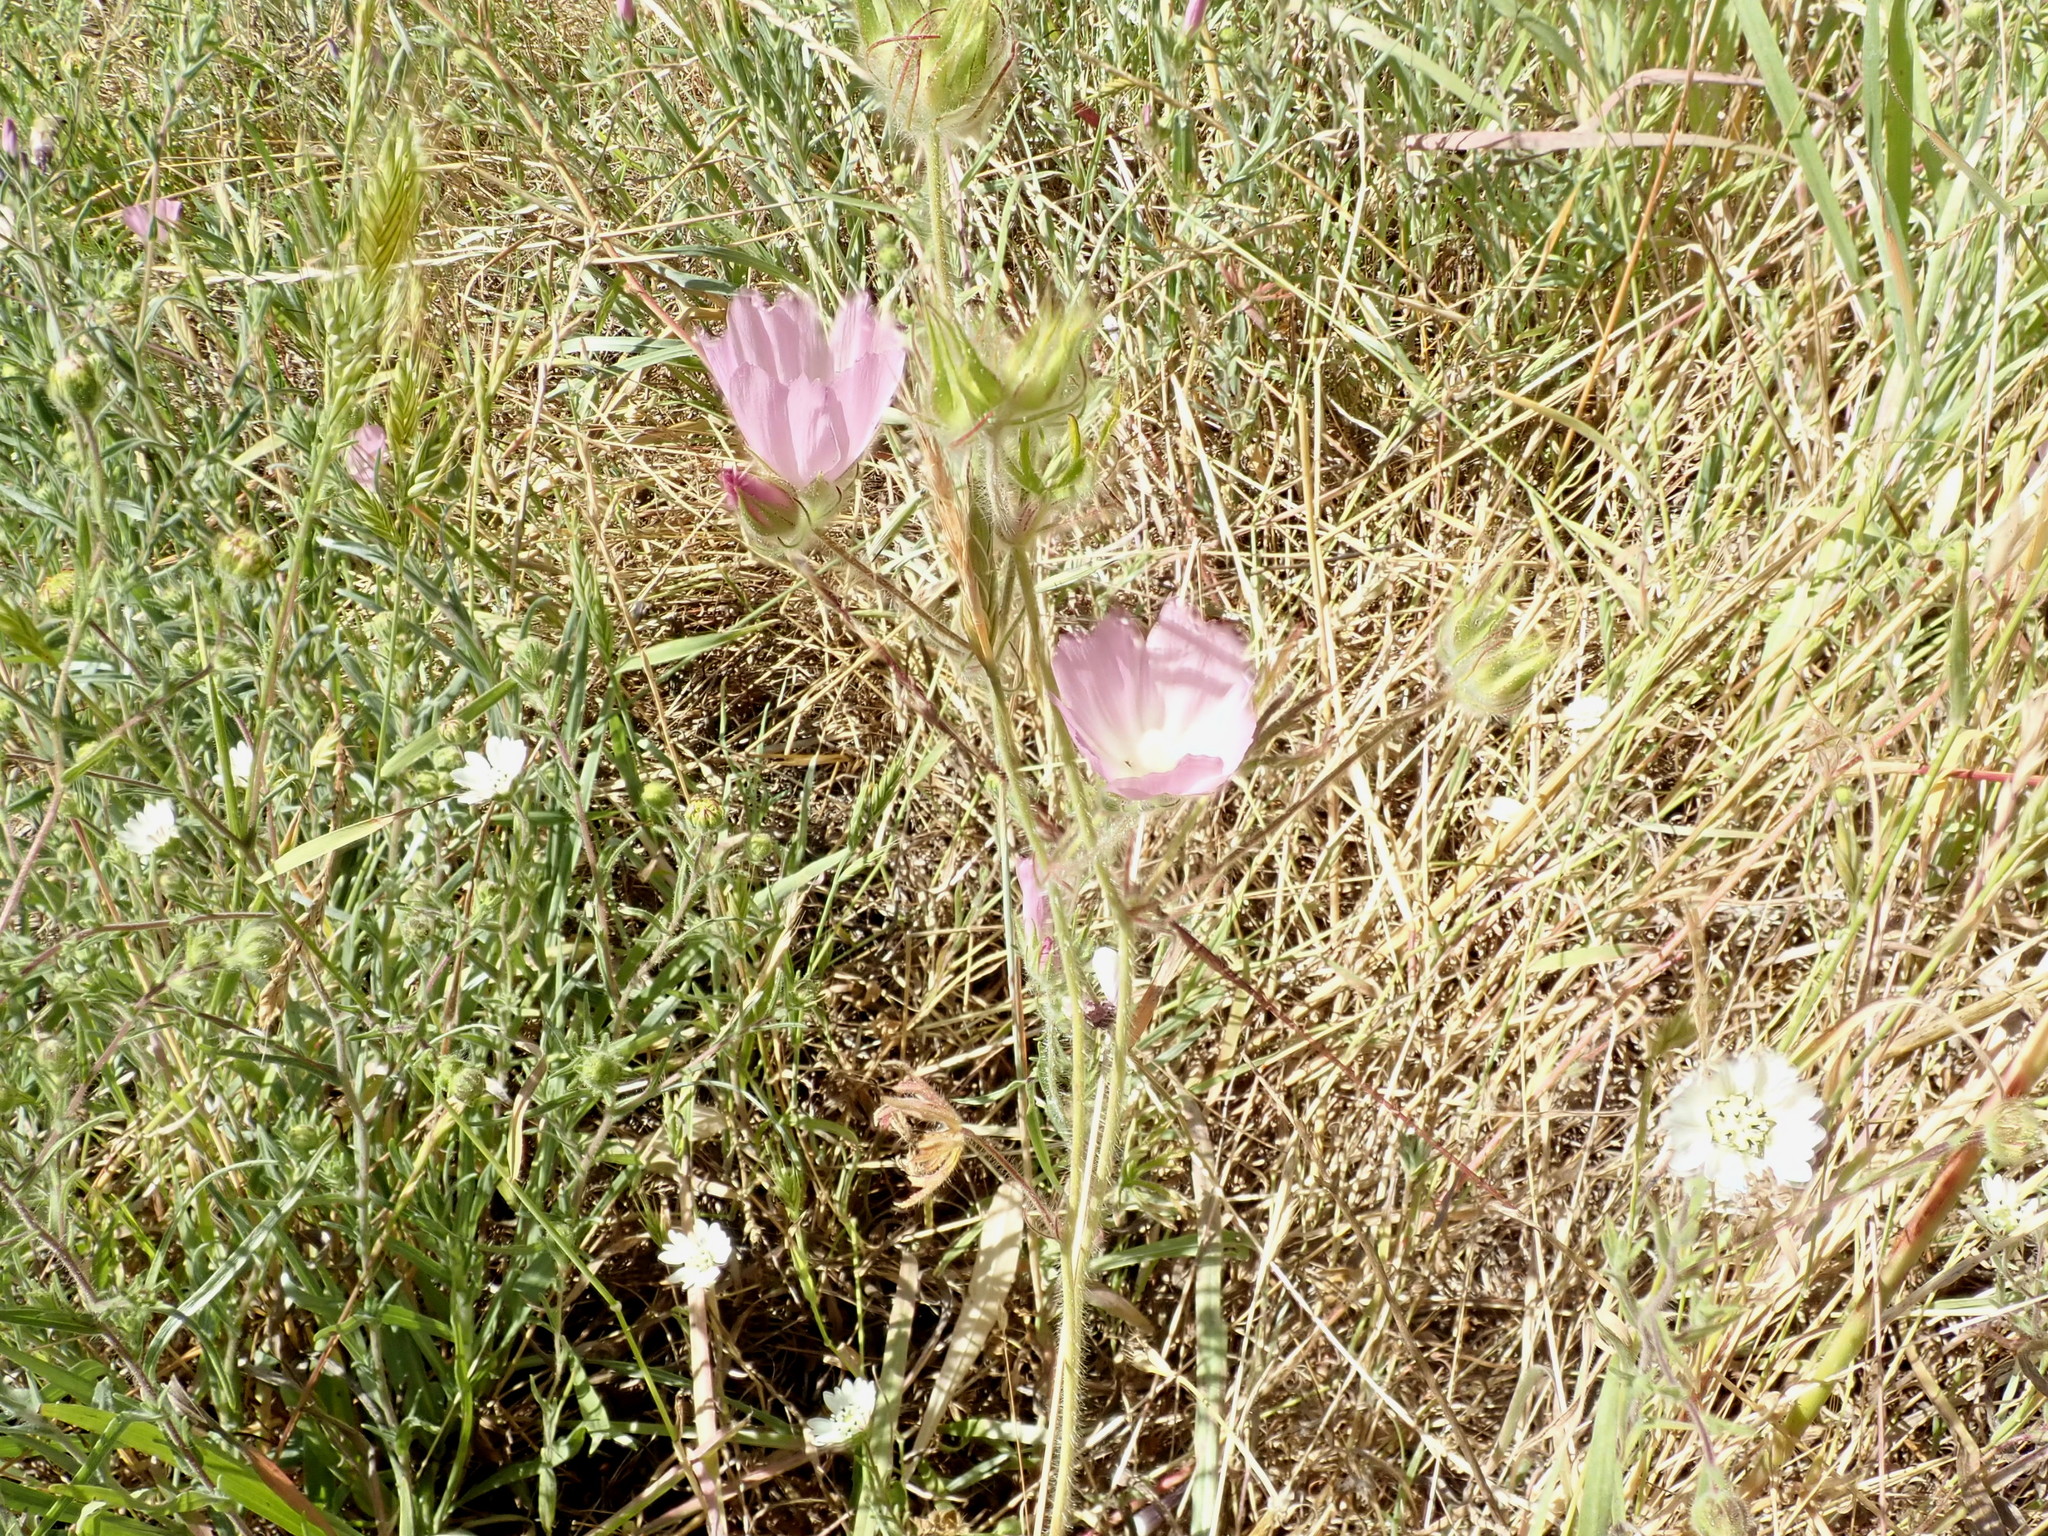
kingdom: Plantae
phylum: Tracheophyta
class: Magnoliopsida
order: Malvales
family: Malvaceae
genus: Sidalcea
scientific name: Sidalcea diploscypha
